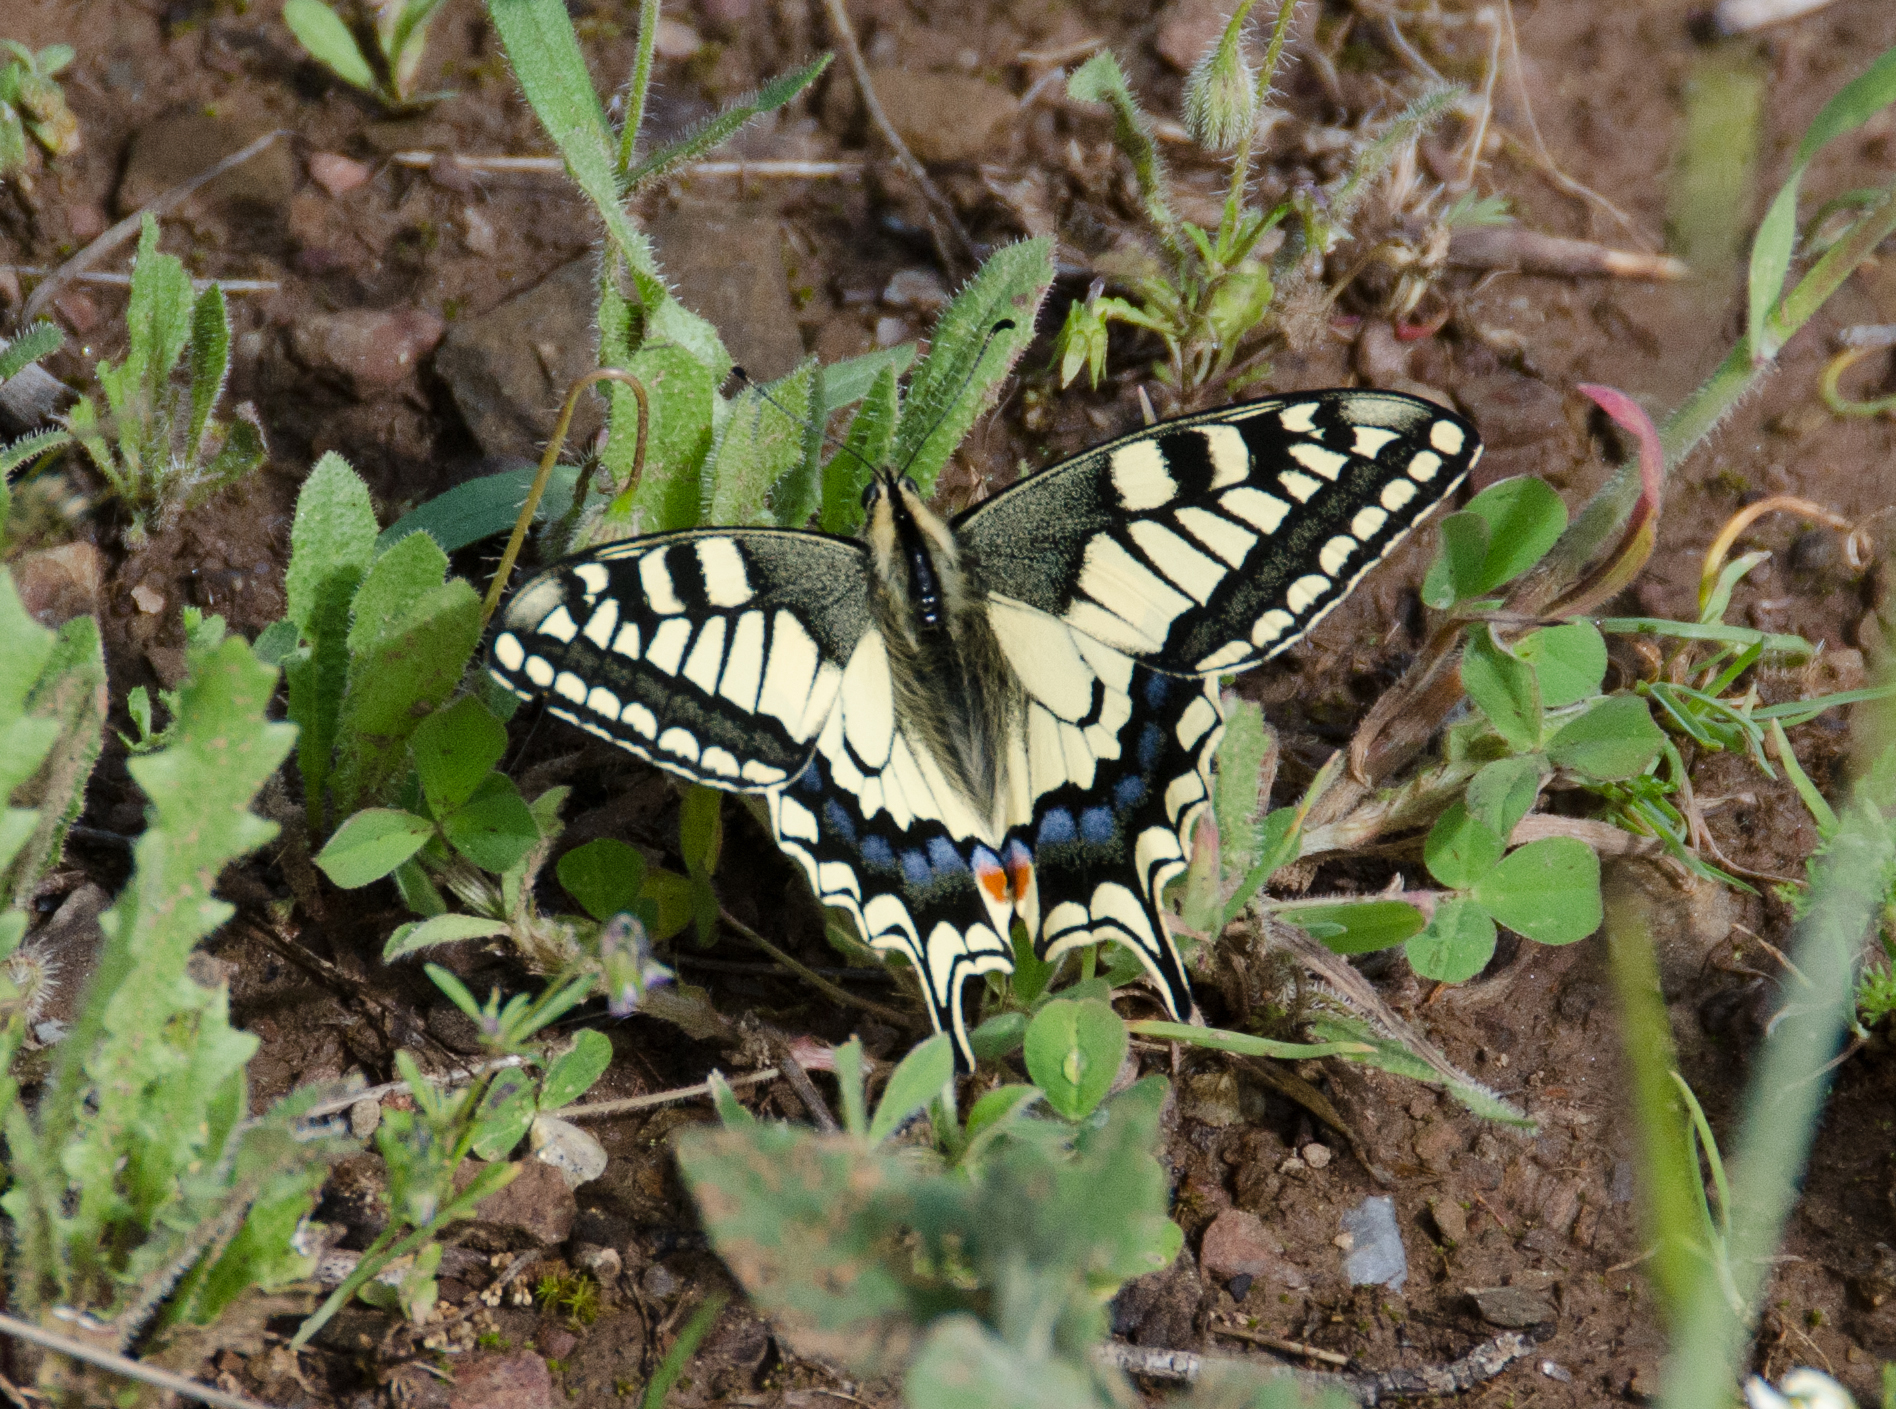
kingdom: Animalia
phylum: Arthropoda
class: Insecta
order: Lepidoptera
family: Papilionidae
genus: Papilio
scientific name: Papilio machaon
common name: Swallowtail
